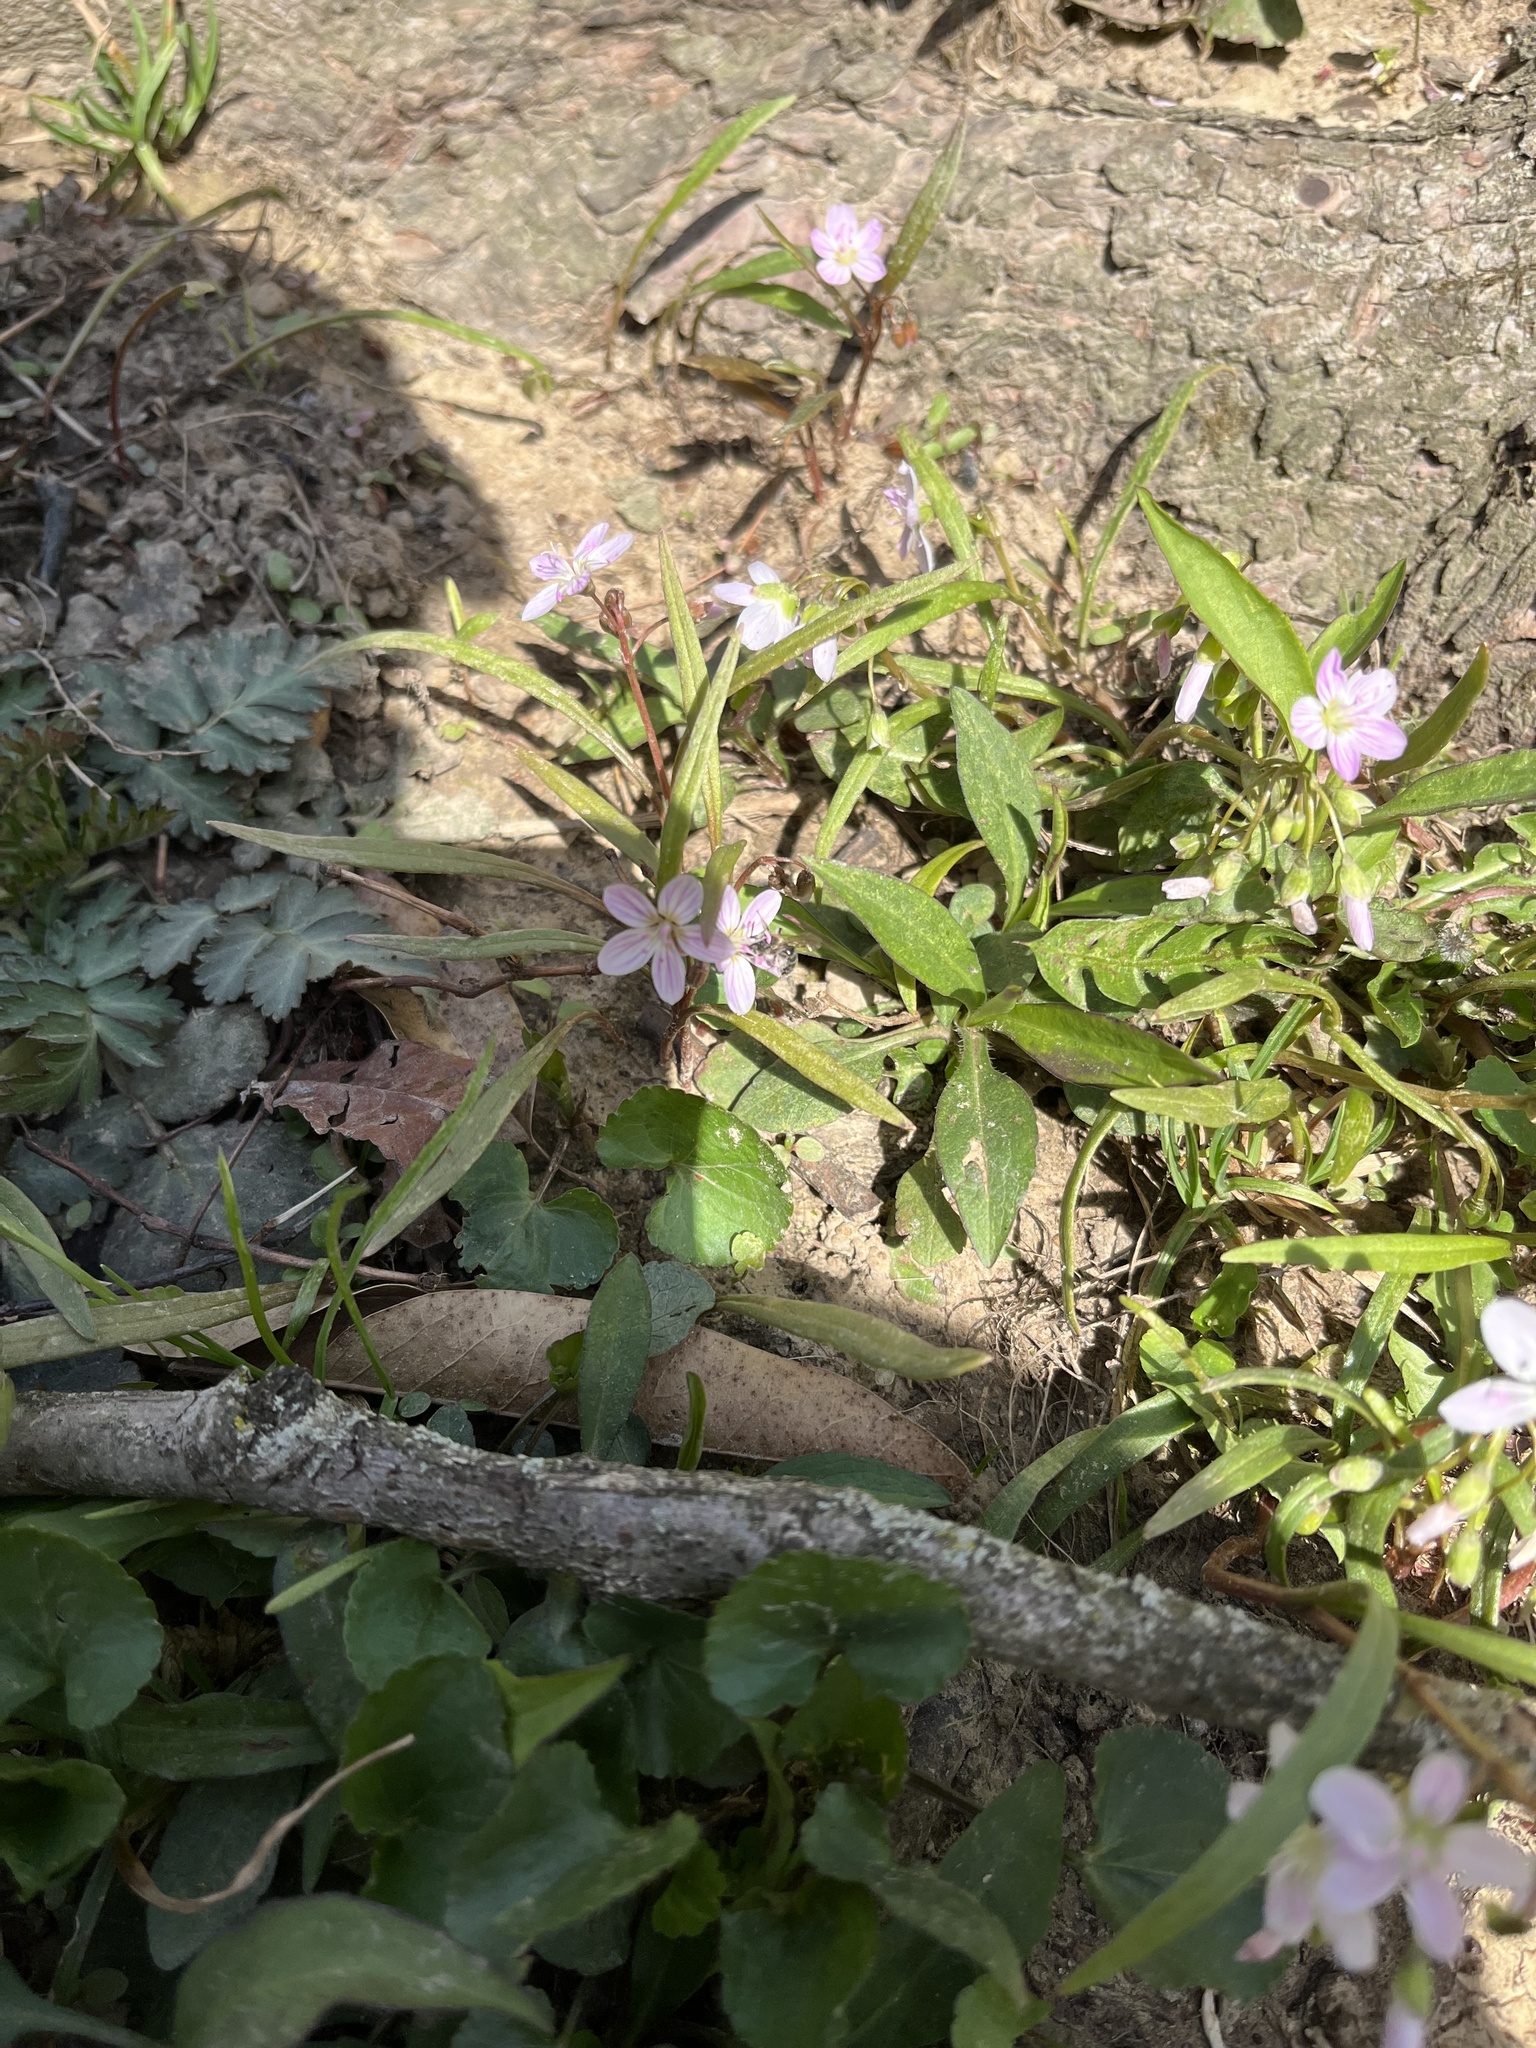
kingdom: Plantae
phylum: Tracheophyta
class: Magnoliopsida
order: Caryophyllales
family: Montiaceae
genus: Claytonia
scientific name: Claytonia virginica
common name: Virginia springbeauty
